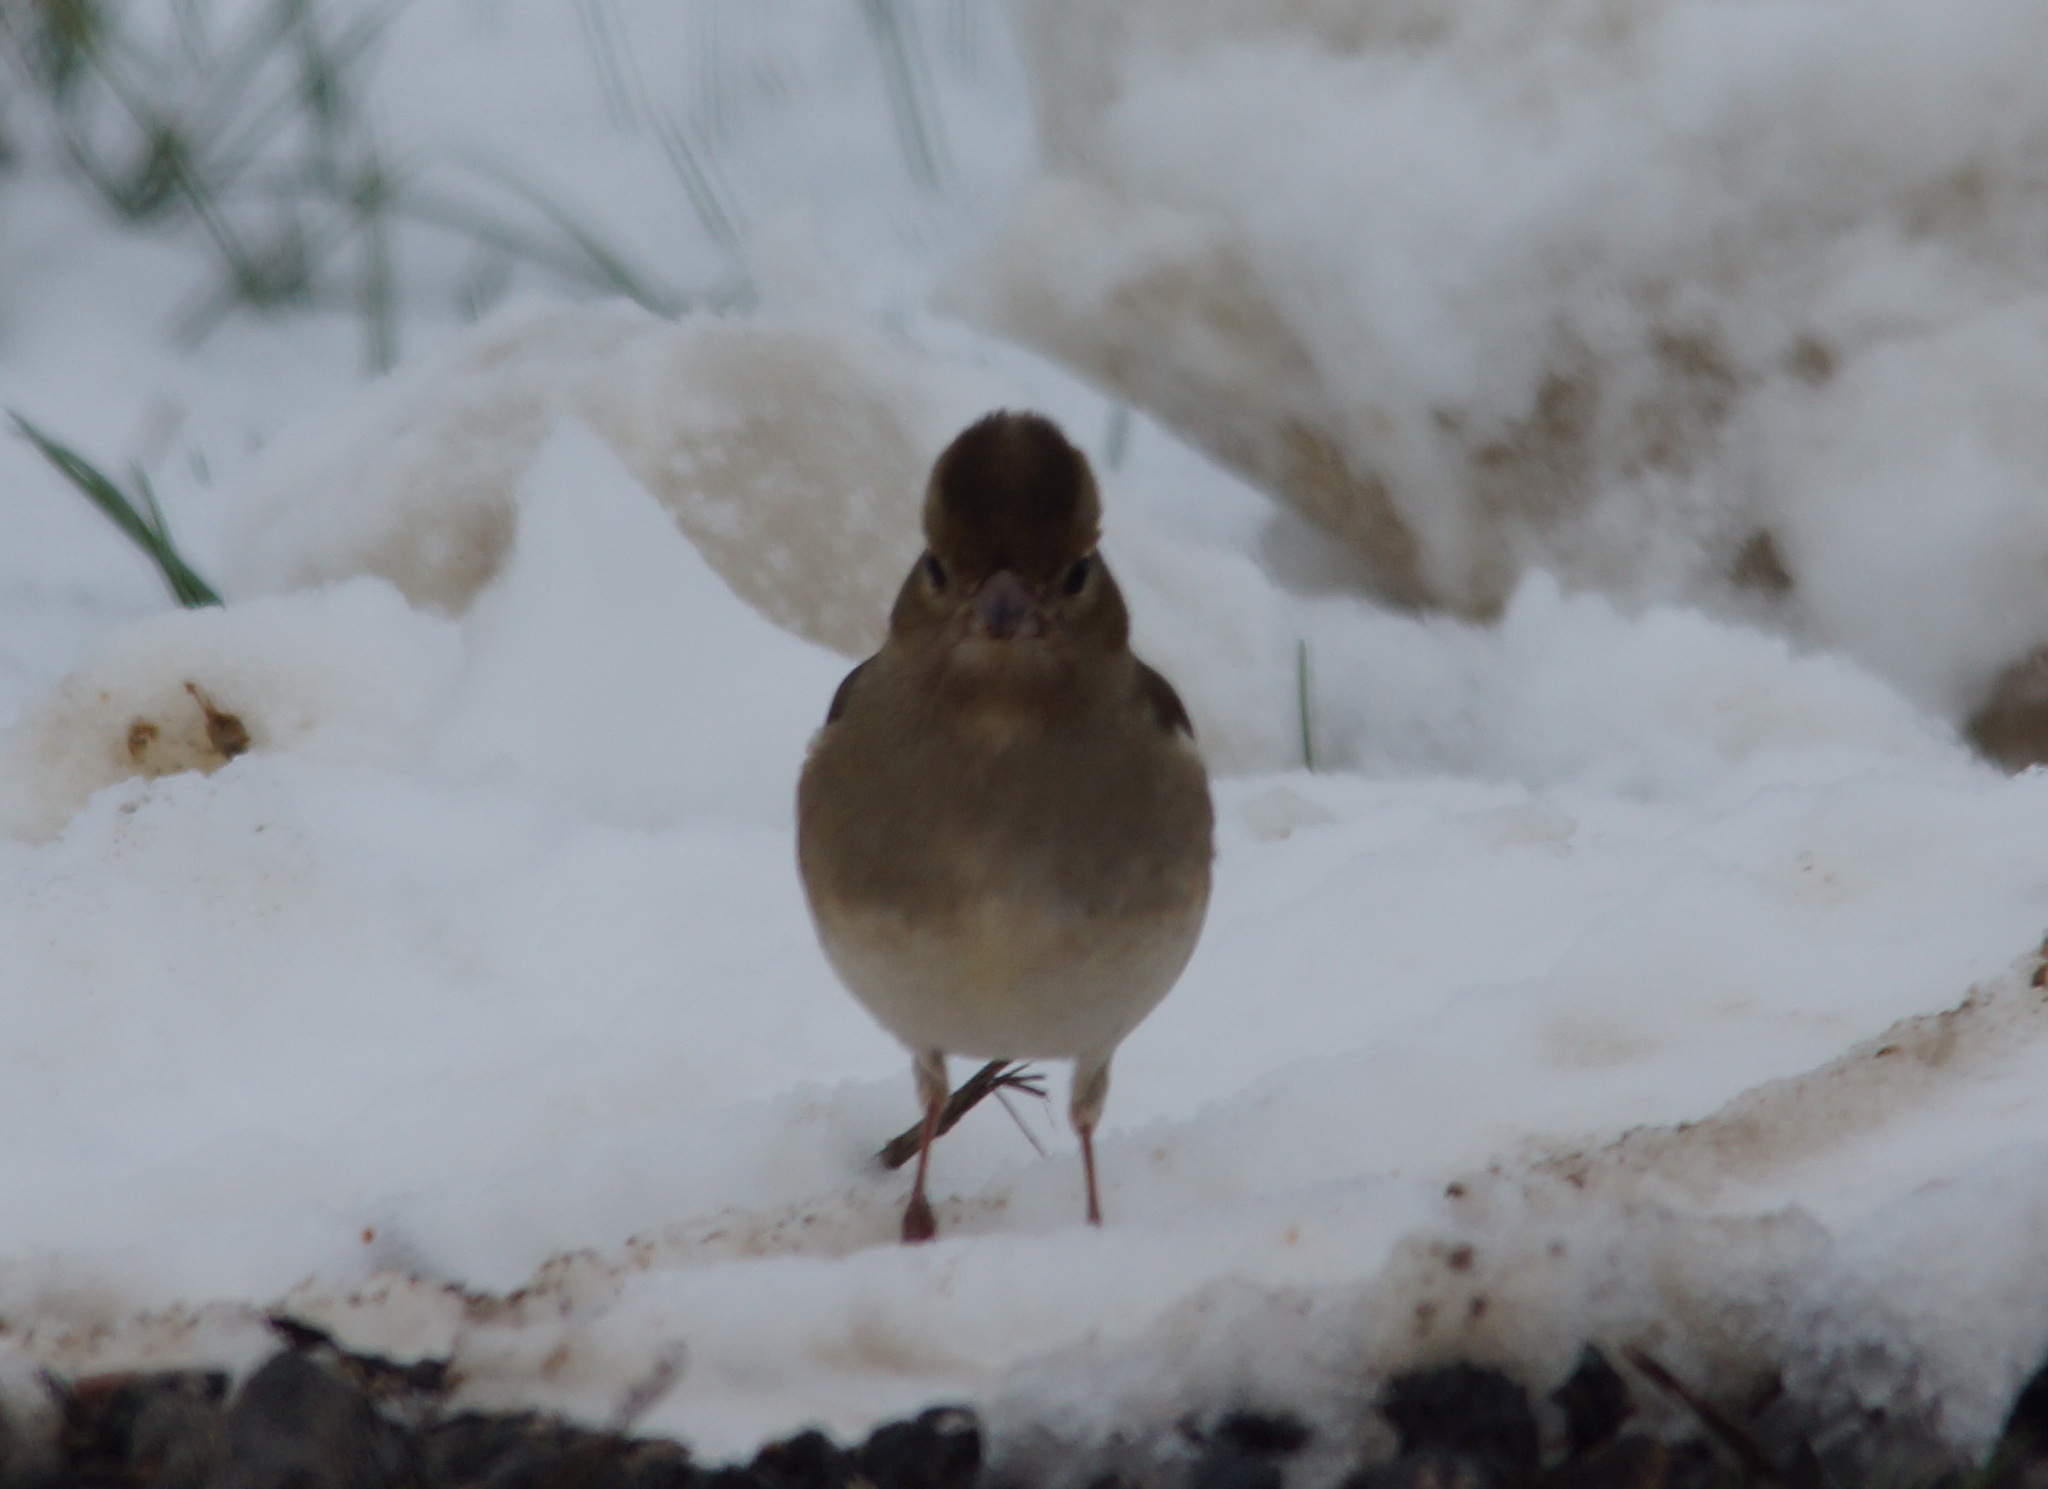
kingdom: Animalia
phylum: Chordata
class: Aves
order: Passeriformes
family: Fringillidae
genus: Fringilla
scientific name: Fringilla coelebs
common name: Common chaffinch
